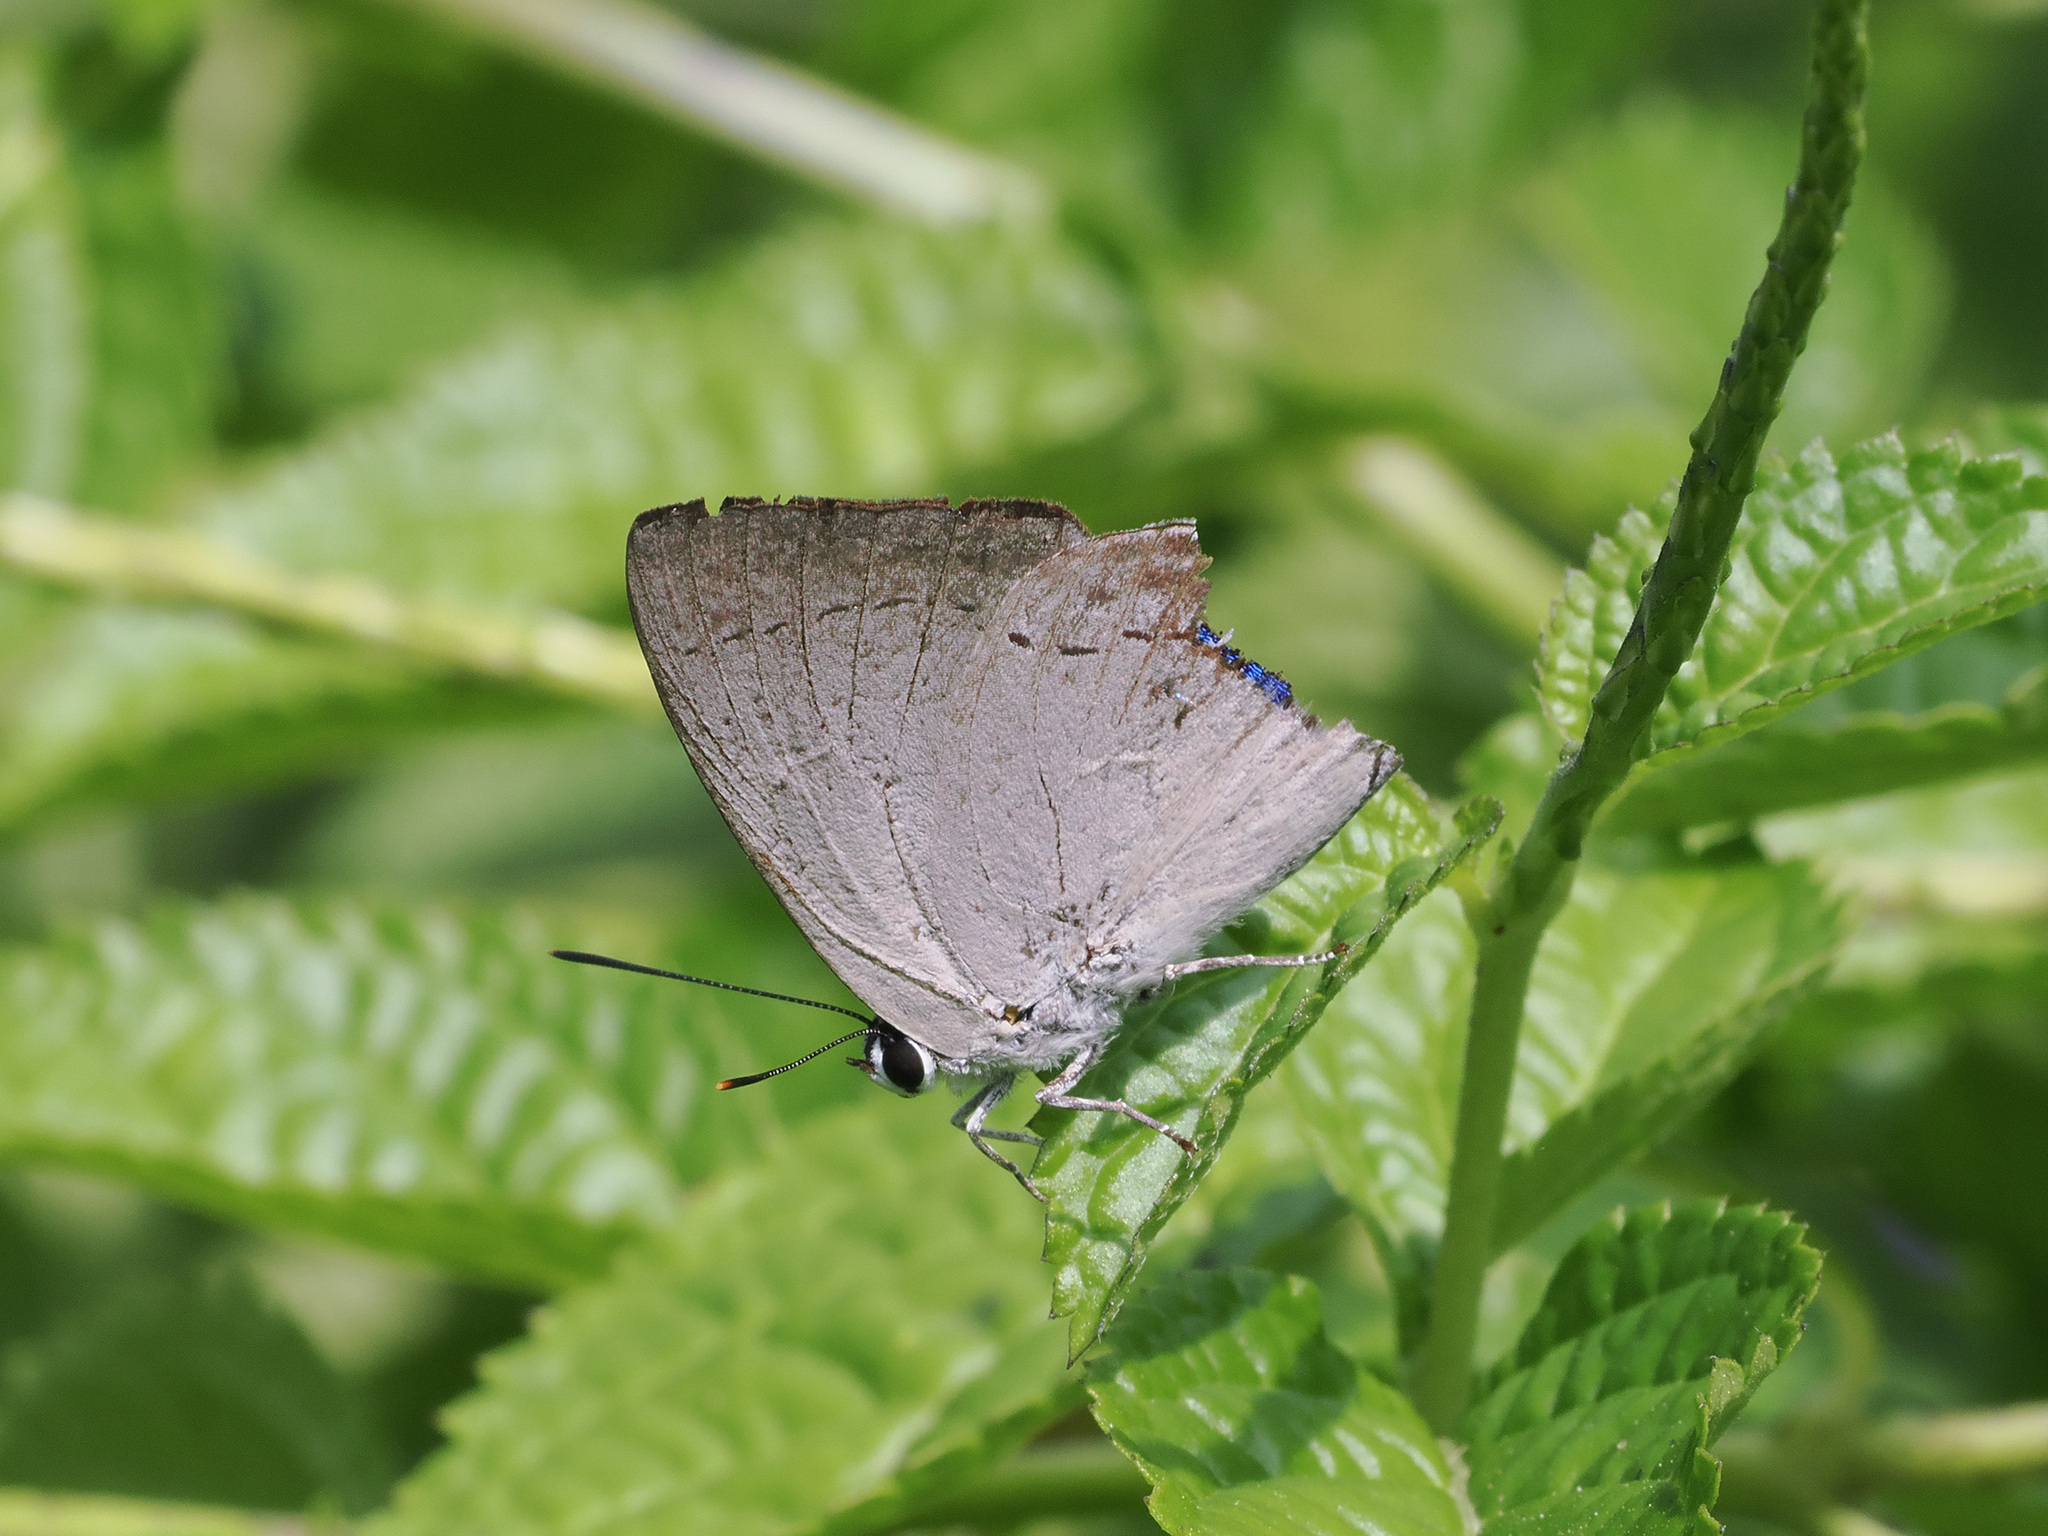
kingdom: Animalia
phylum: Arthropoda
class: Insecta
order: Lepidoptera
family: Lycaenidae
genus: Tajuria
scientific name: Tajuria cippus
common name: Peacock royal
